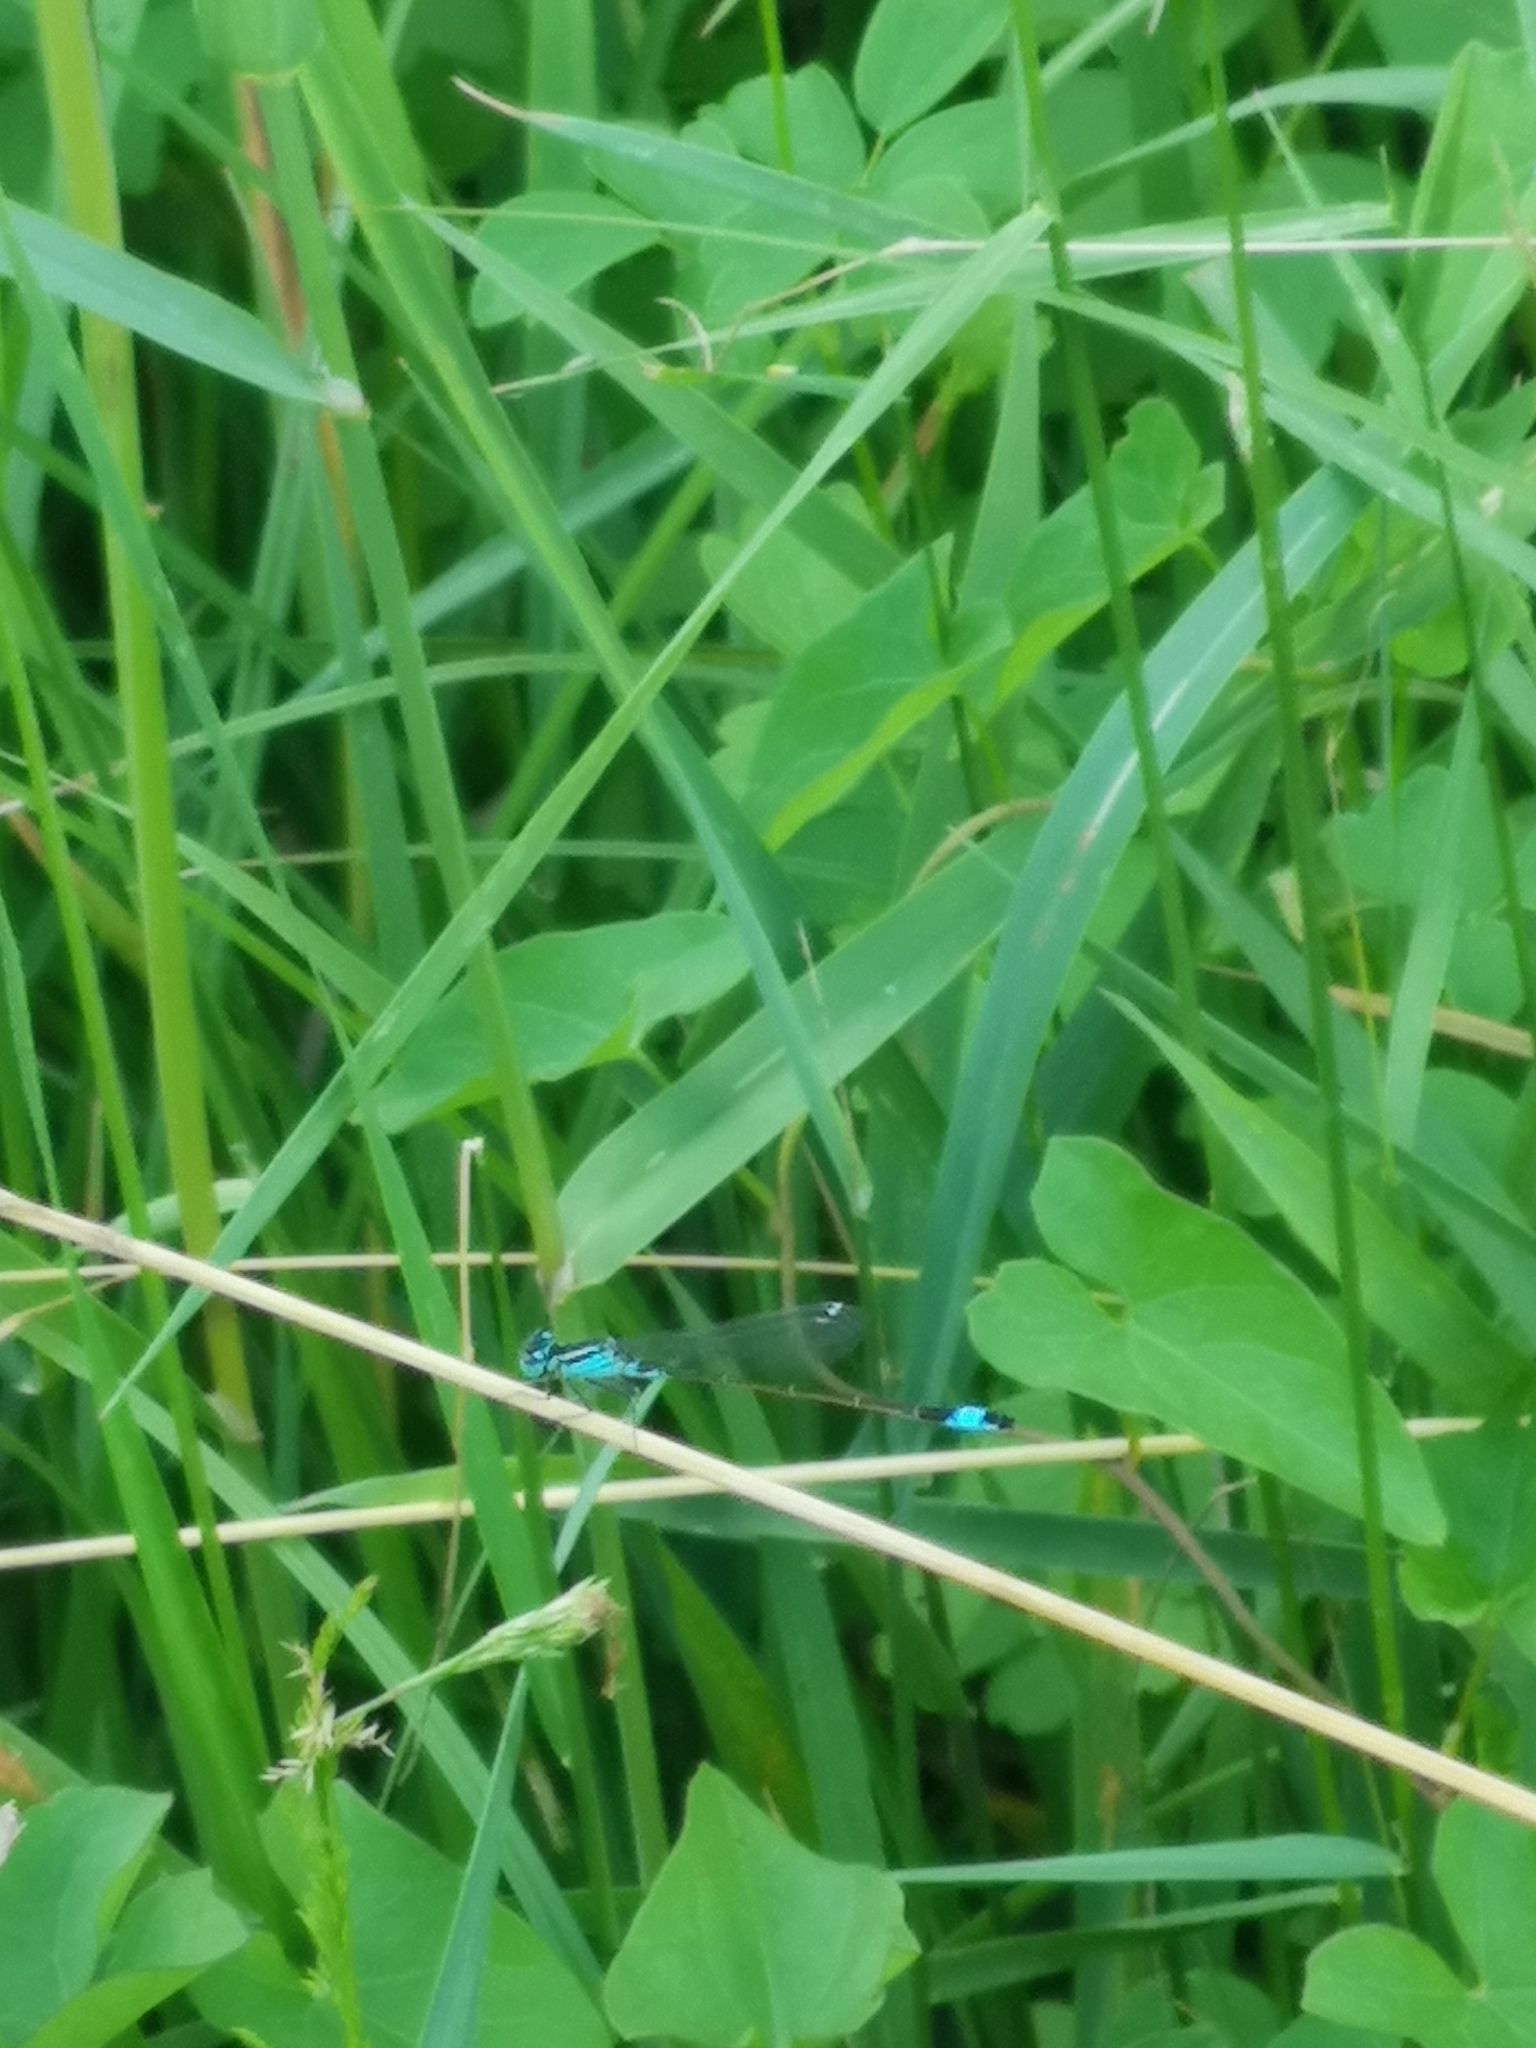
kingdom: Animalia
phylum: Arthropoda
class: Insecta
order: Odonata
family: Coenagrionidae
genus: Ischnura
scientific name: Ischnura elegans
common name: Blue-tailed damselfly
